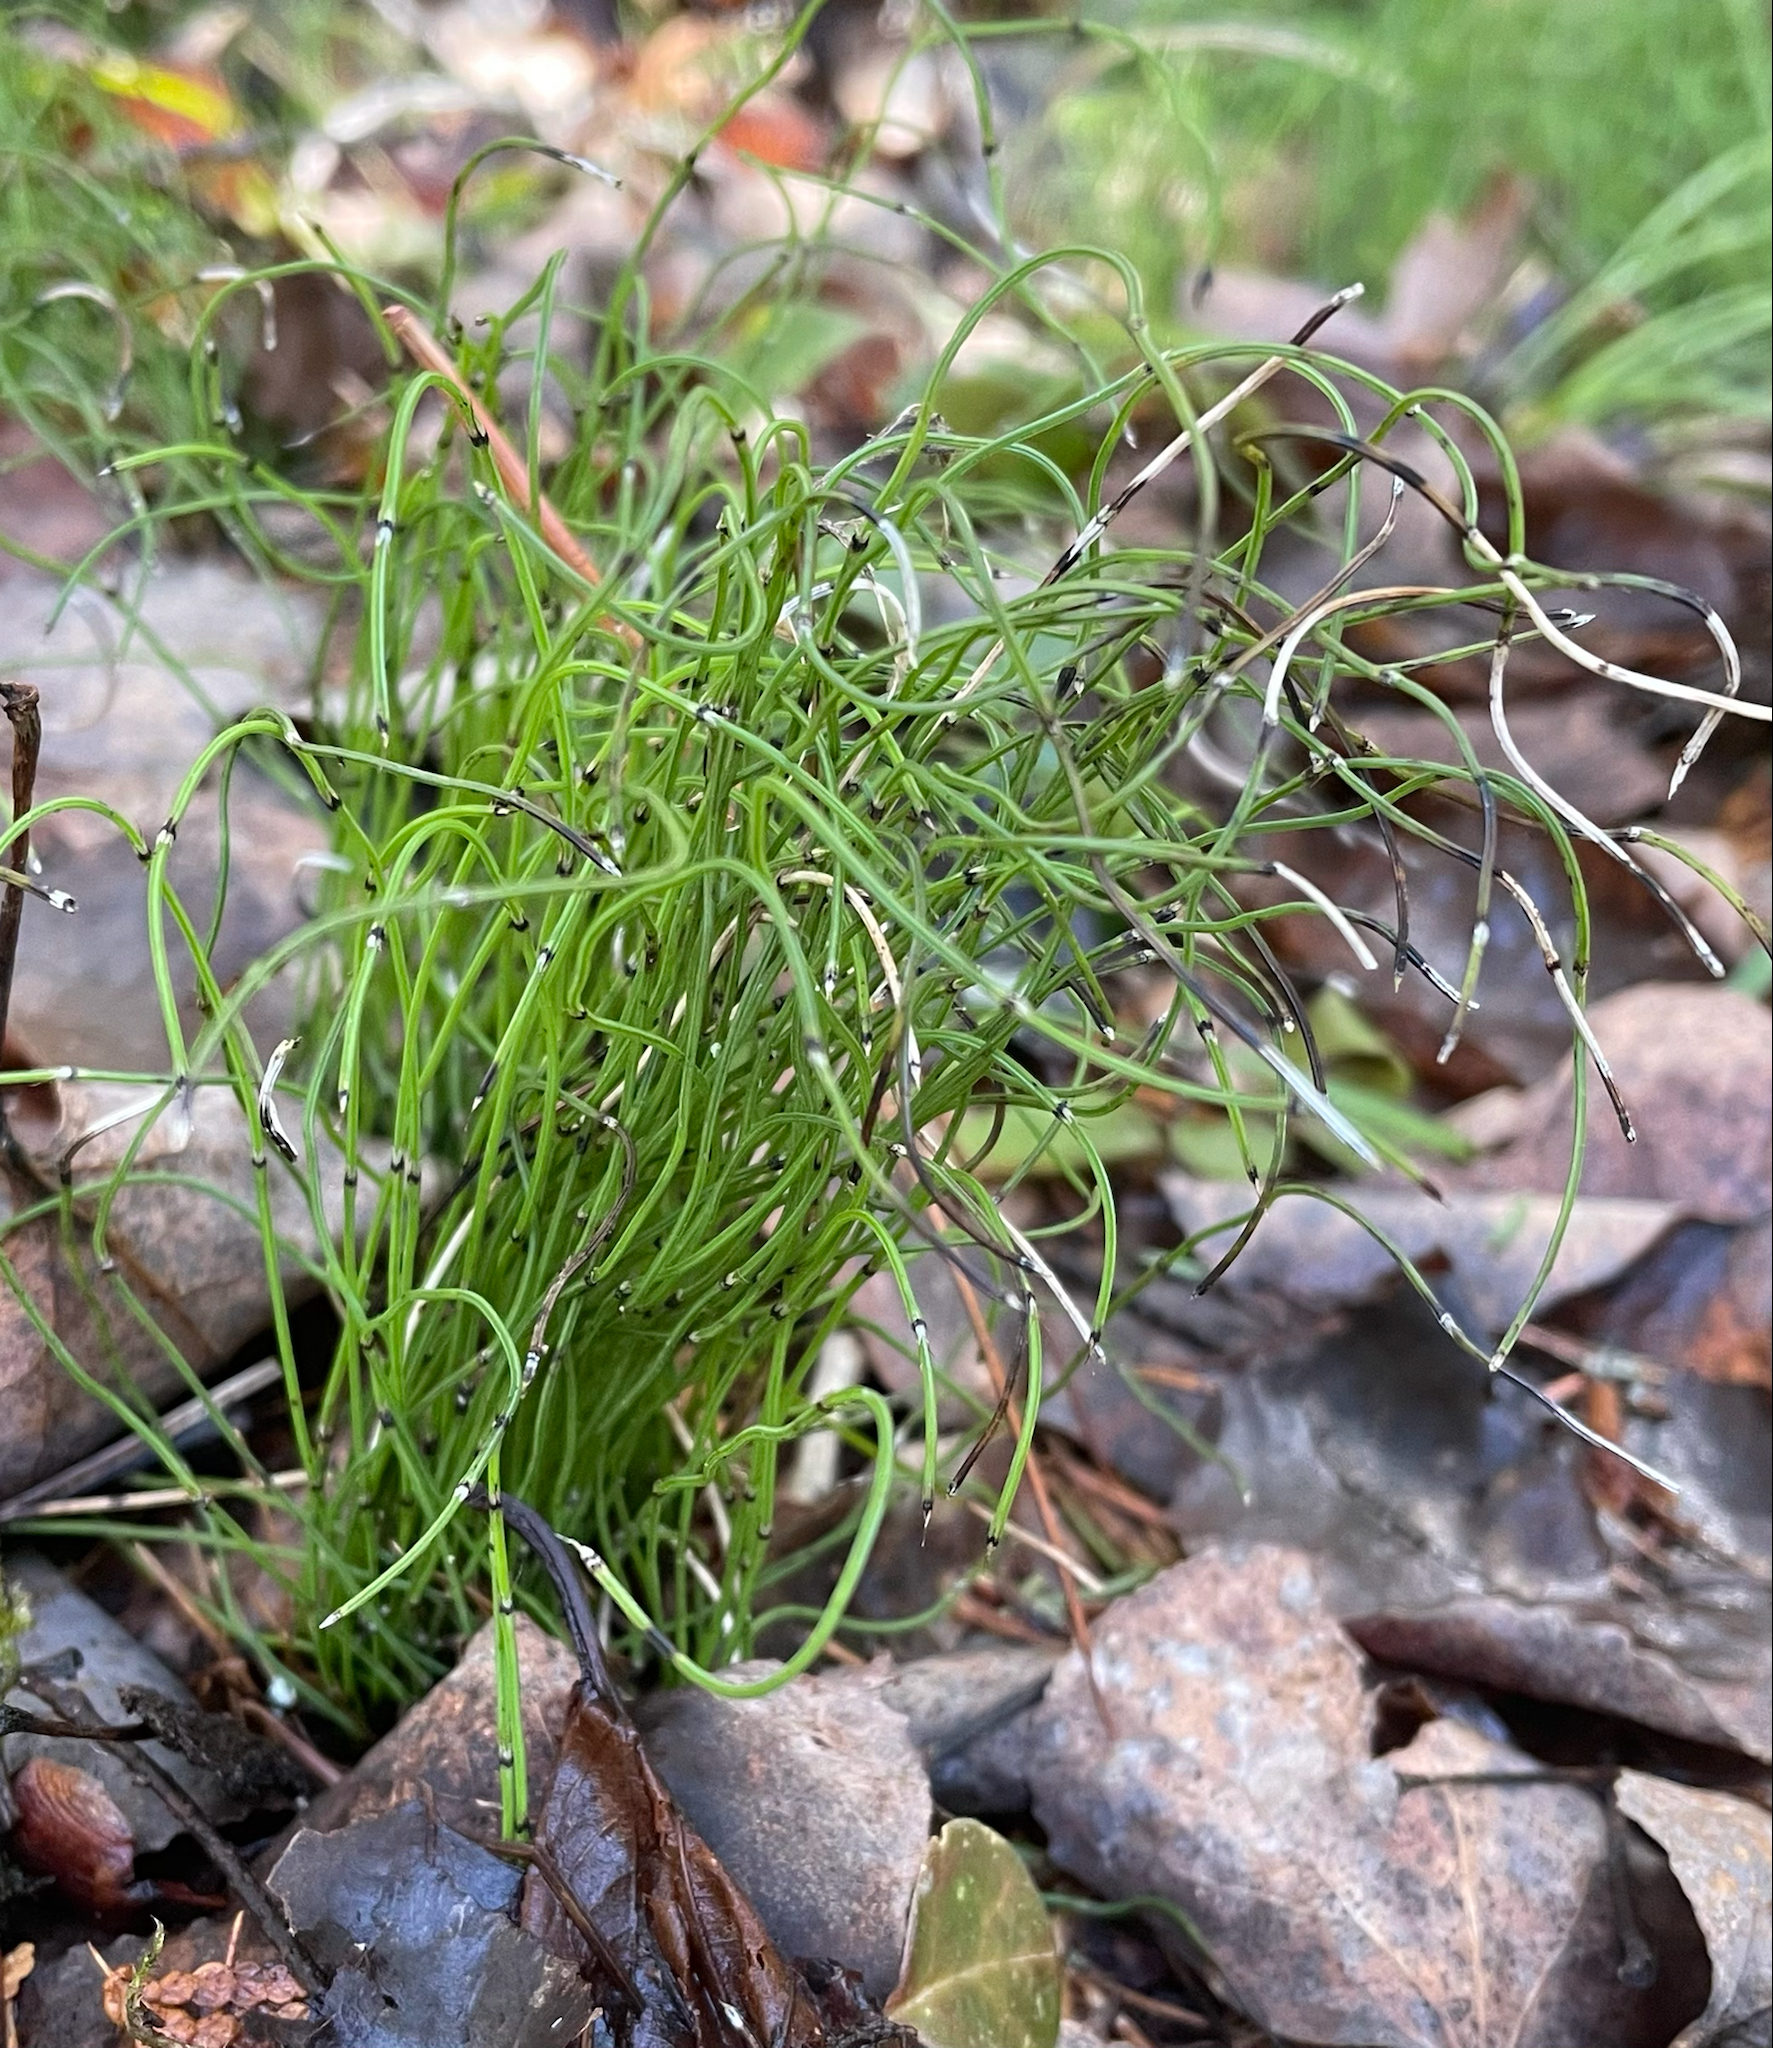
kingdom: Plantae
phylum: Tracheophyta
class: Polypodiopsida
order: Equisetales
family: Equisetaceae
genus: Equisetum
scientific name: Equisetum scirpoides
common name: Delicate horsetail
